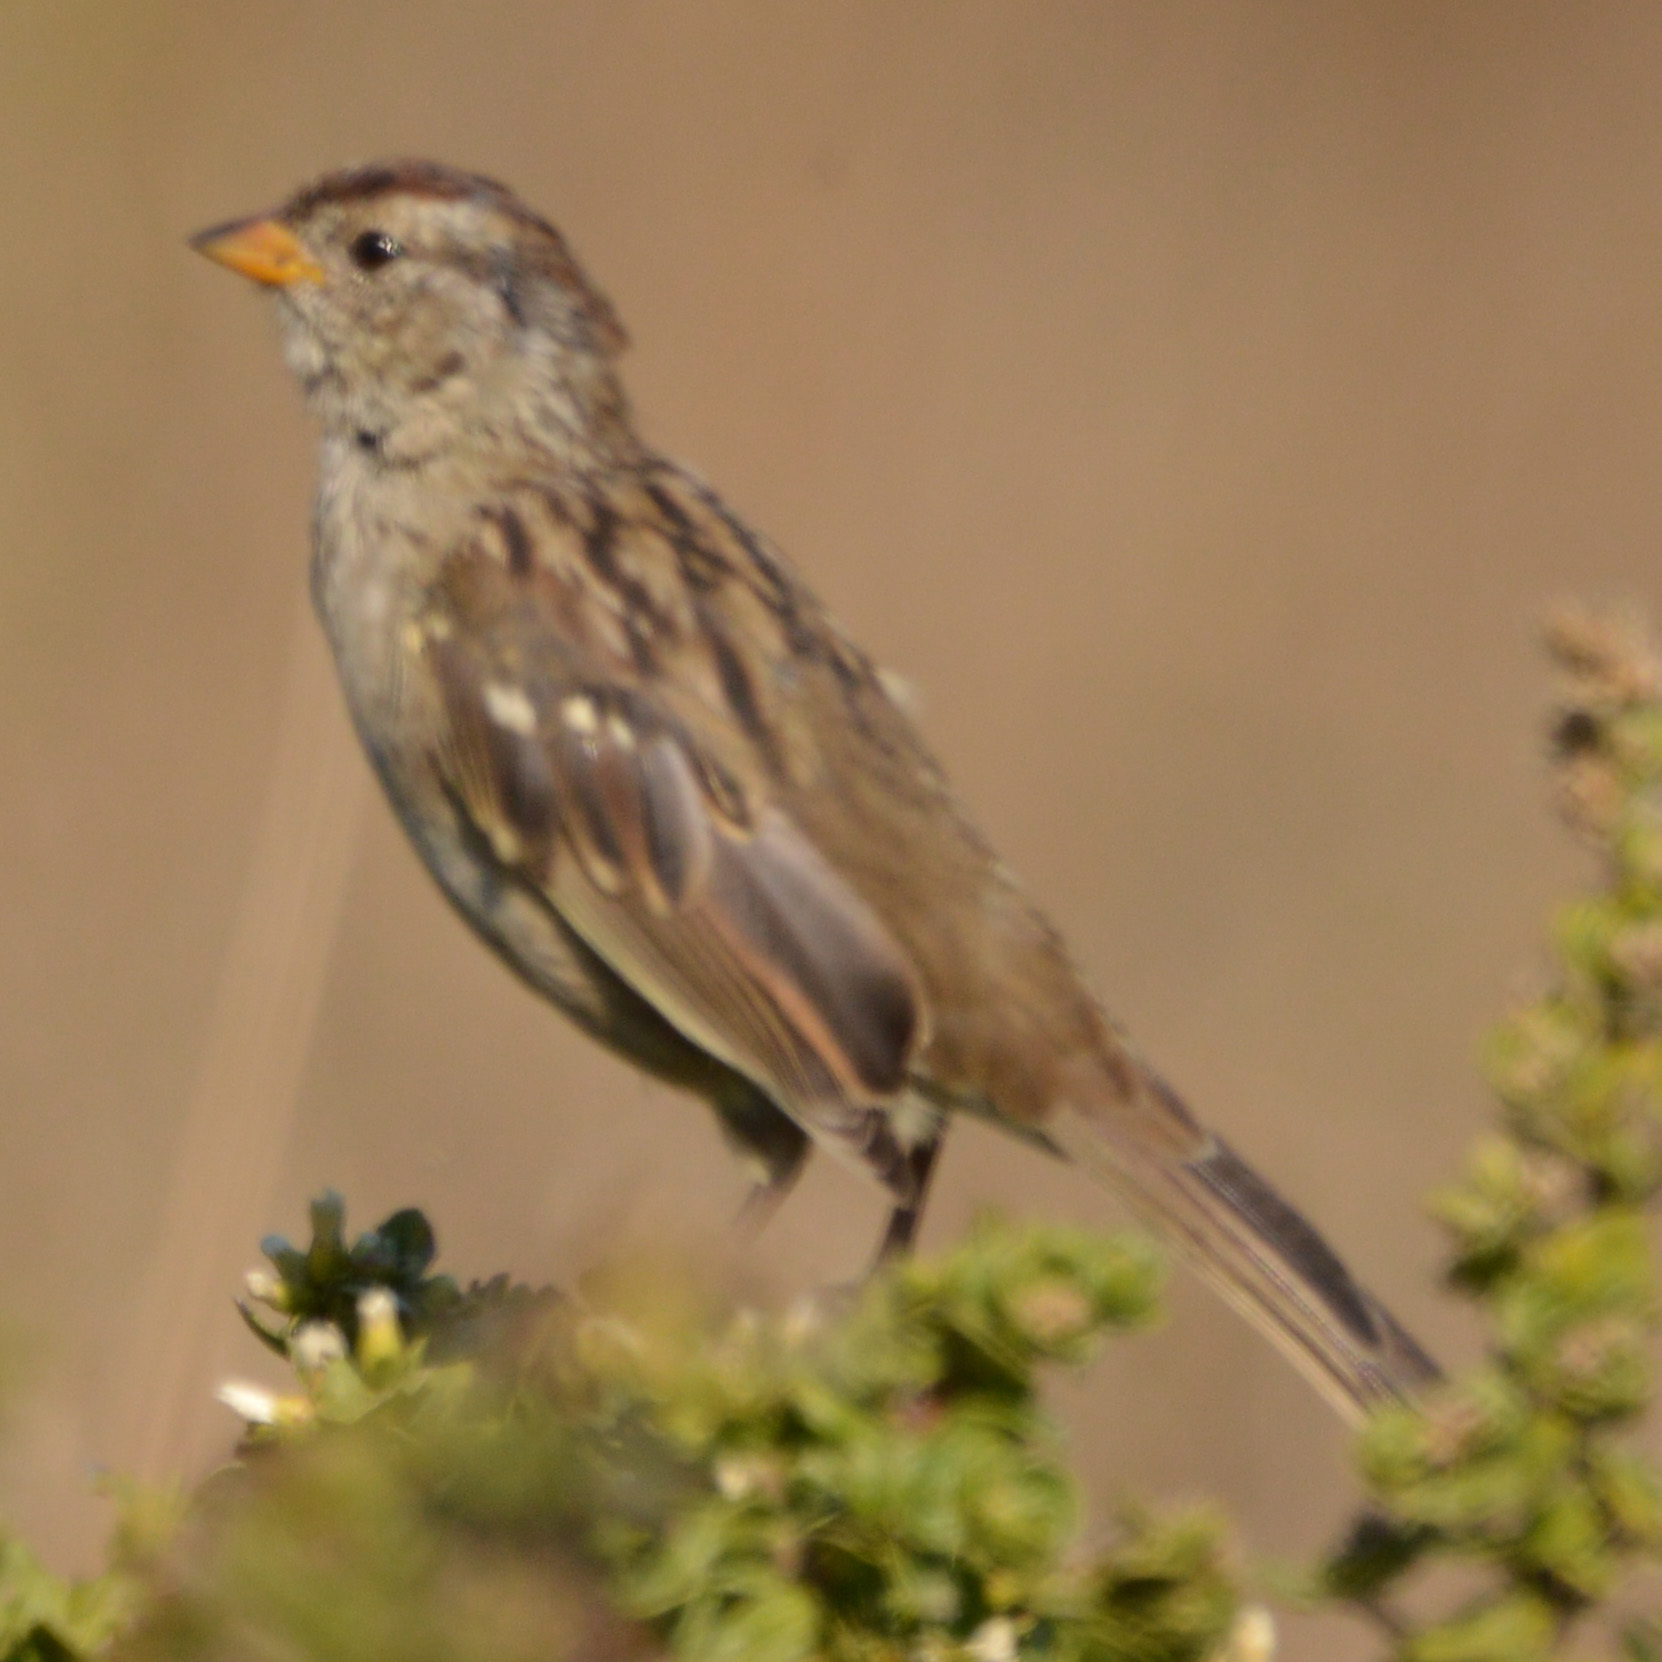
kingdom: Animalia
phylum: Chordata
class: Aves
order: Passeriformes
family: Passerellidae
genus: Zonotrichia
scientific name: Zonotrichia leucophrys
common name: White-crowned sparrow
